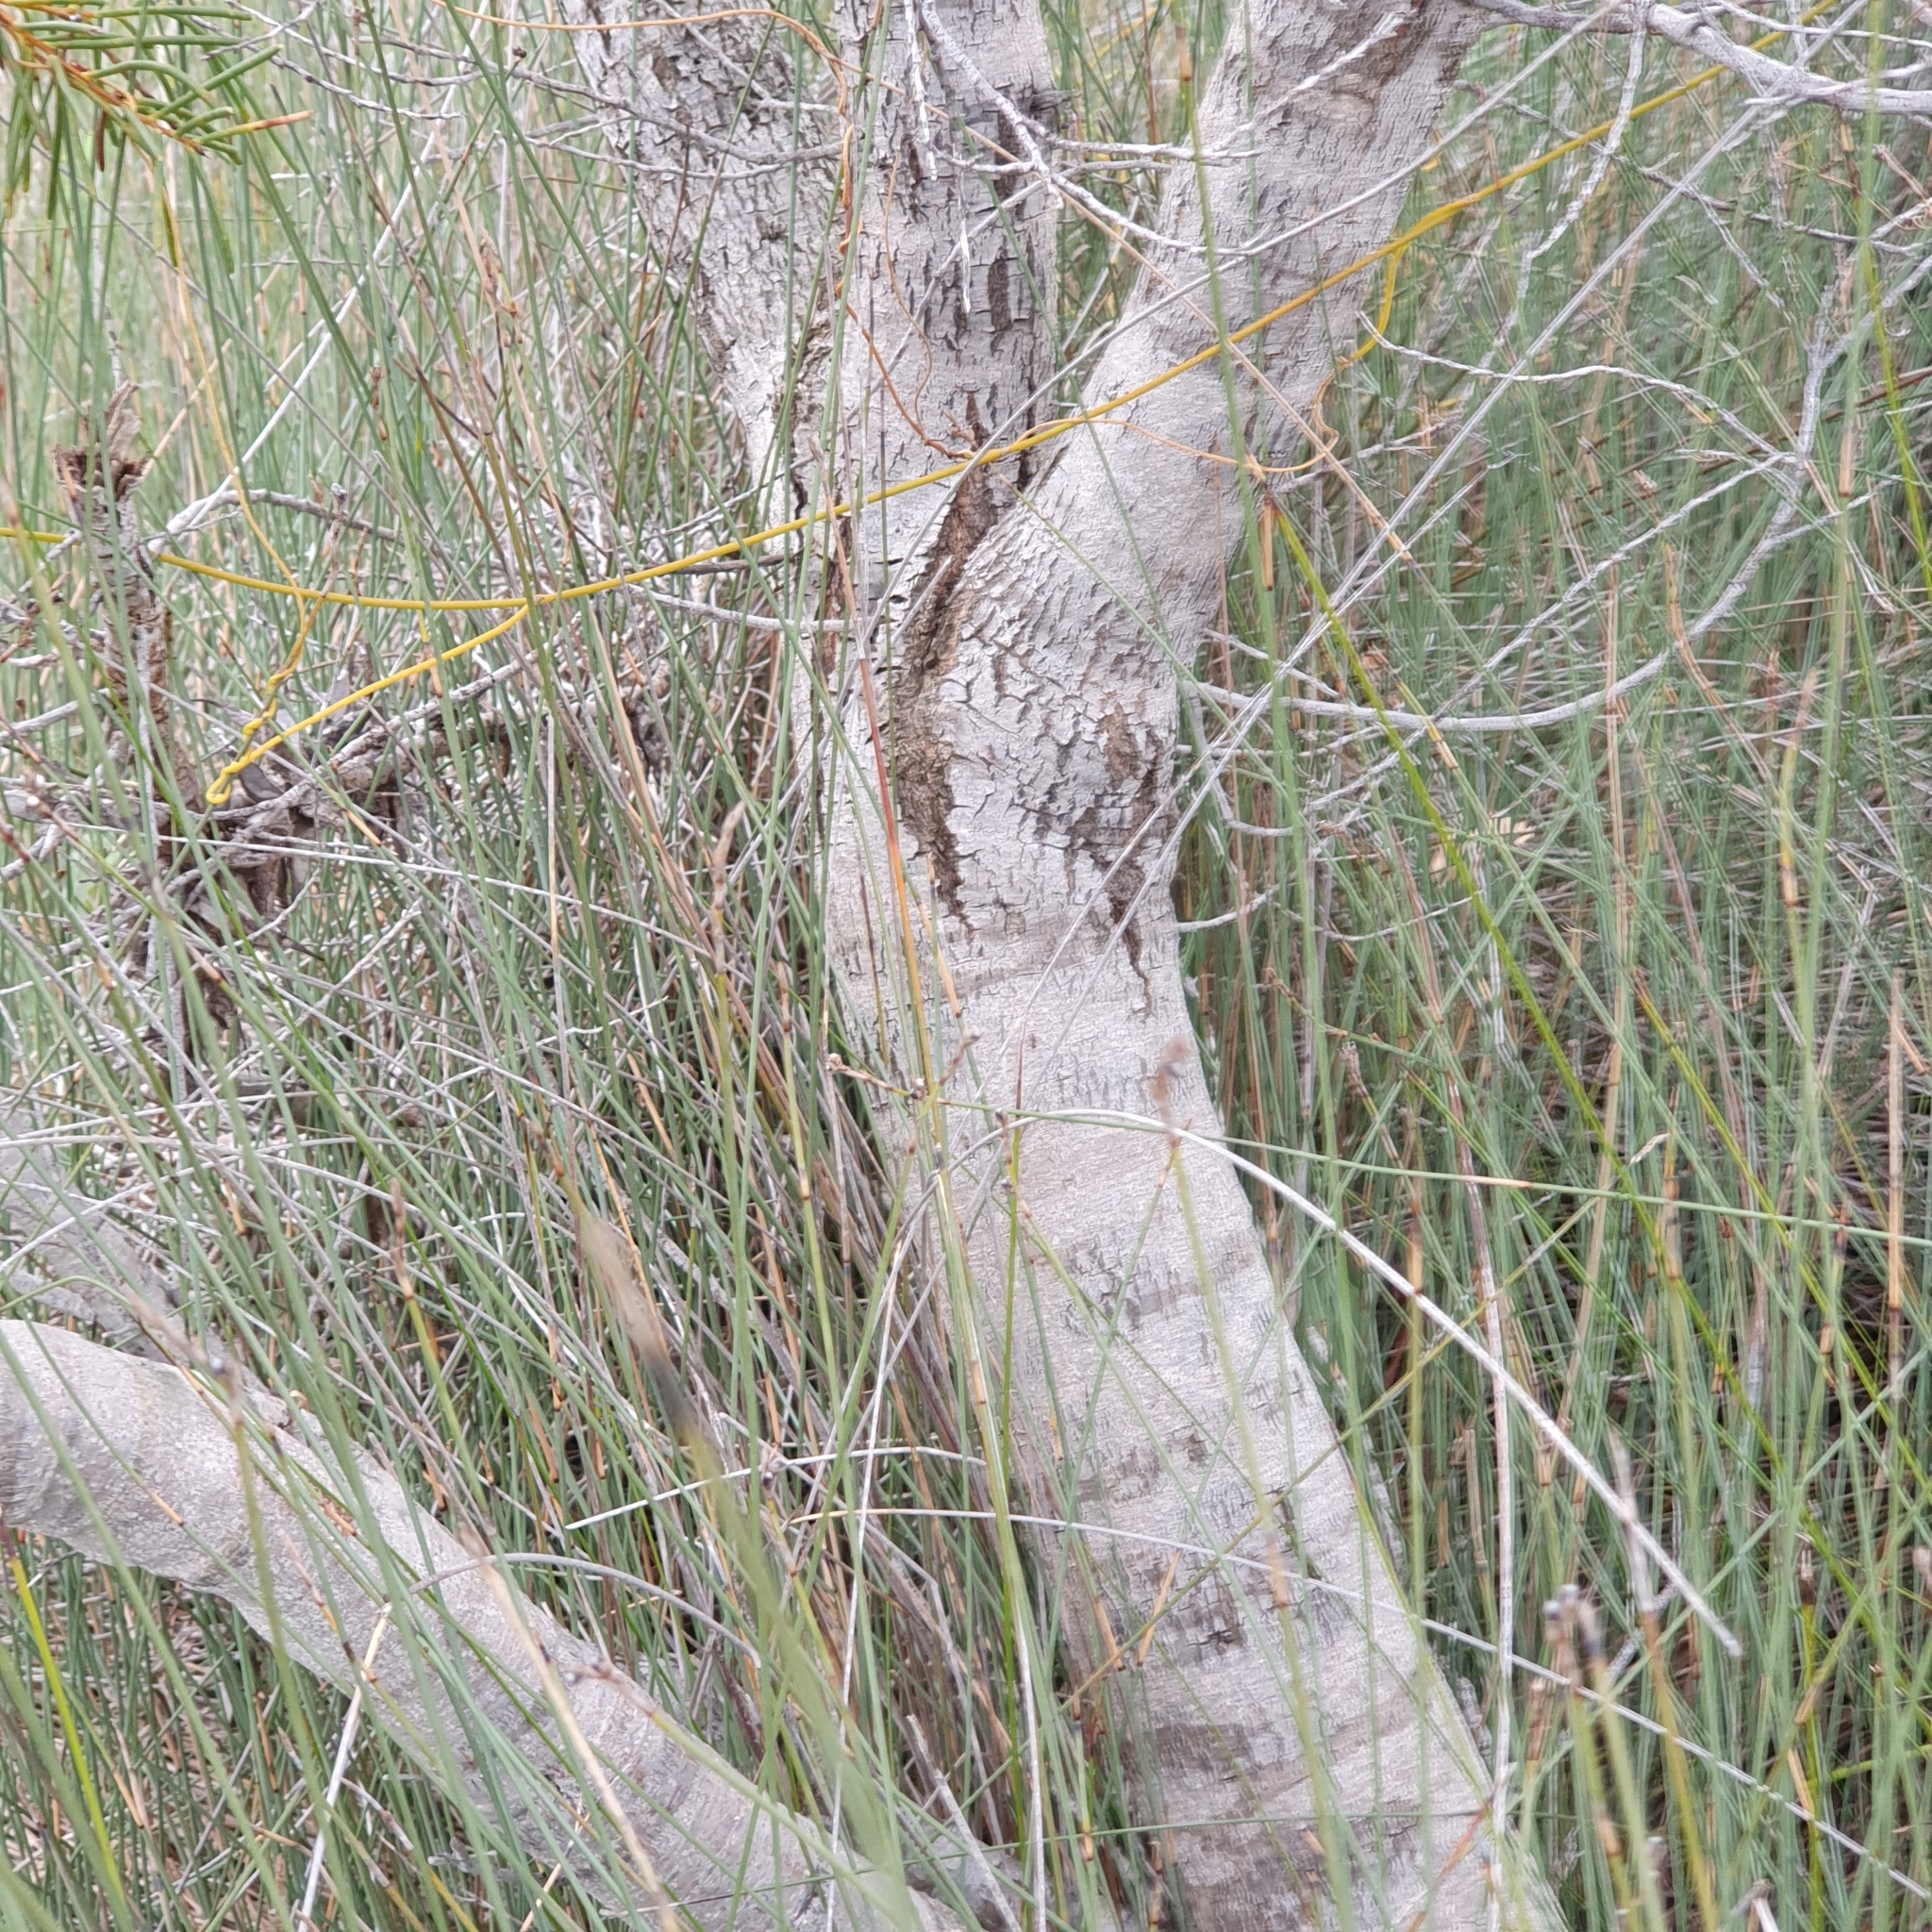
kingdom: Plantae
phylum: Tracheophyta
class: Magnoliopsida
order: Proteales
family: Proteaceae
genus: Hakea
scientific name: Hakea teretifolia
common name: Dagger hakea
